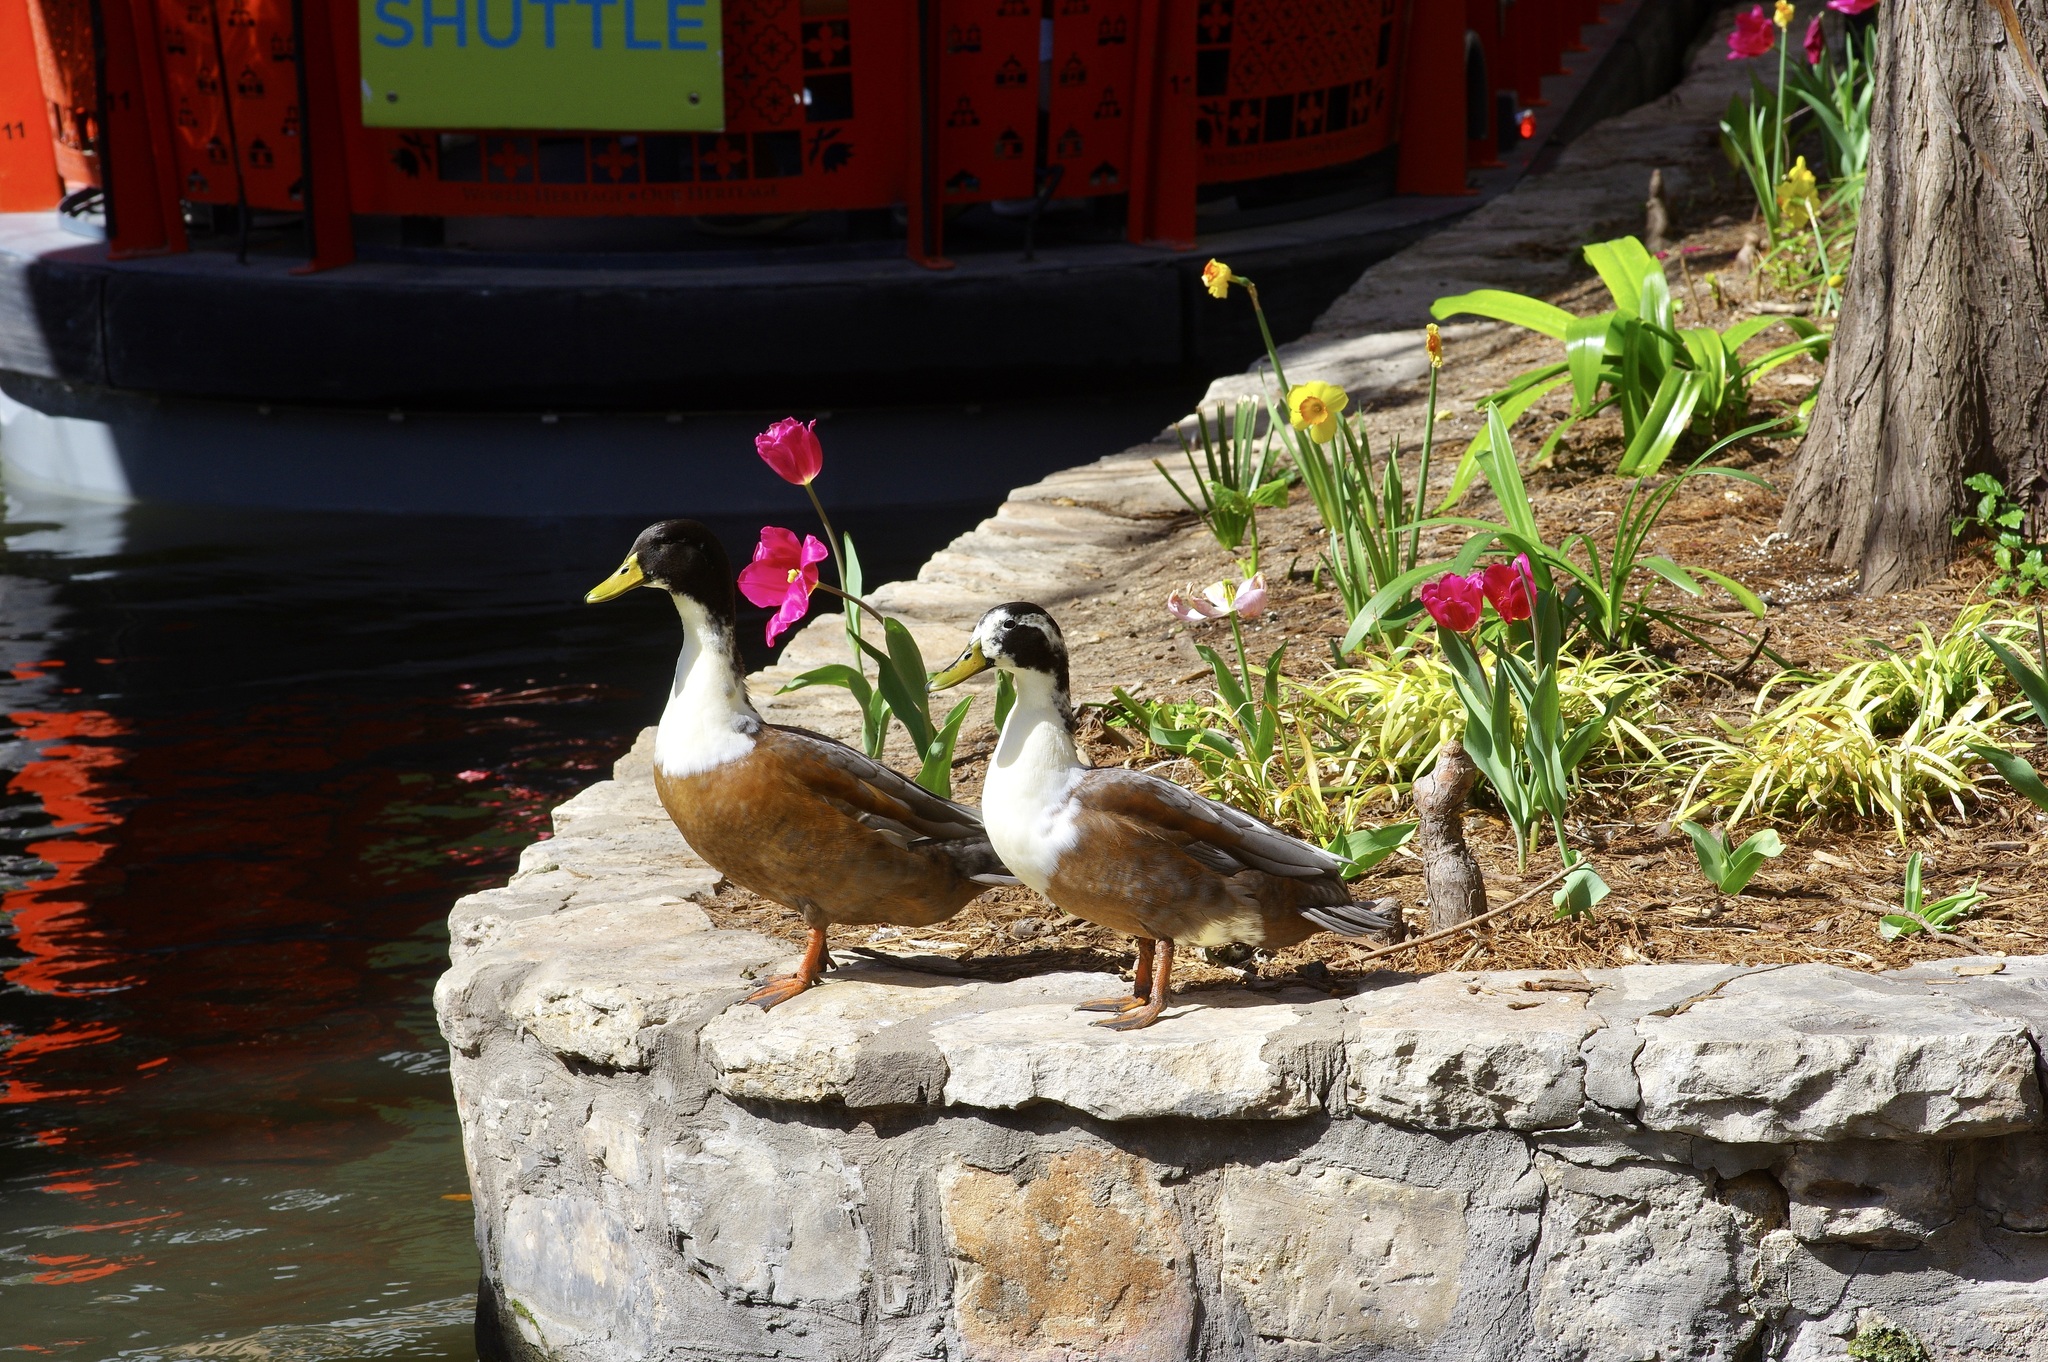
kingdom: Animalia
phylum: Chordata
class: Aves
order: Anseriformes
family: Anatidae
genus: Anas
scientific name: Anas platyrhynchos
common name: Mallard
